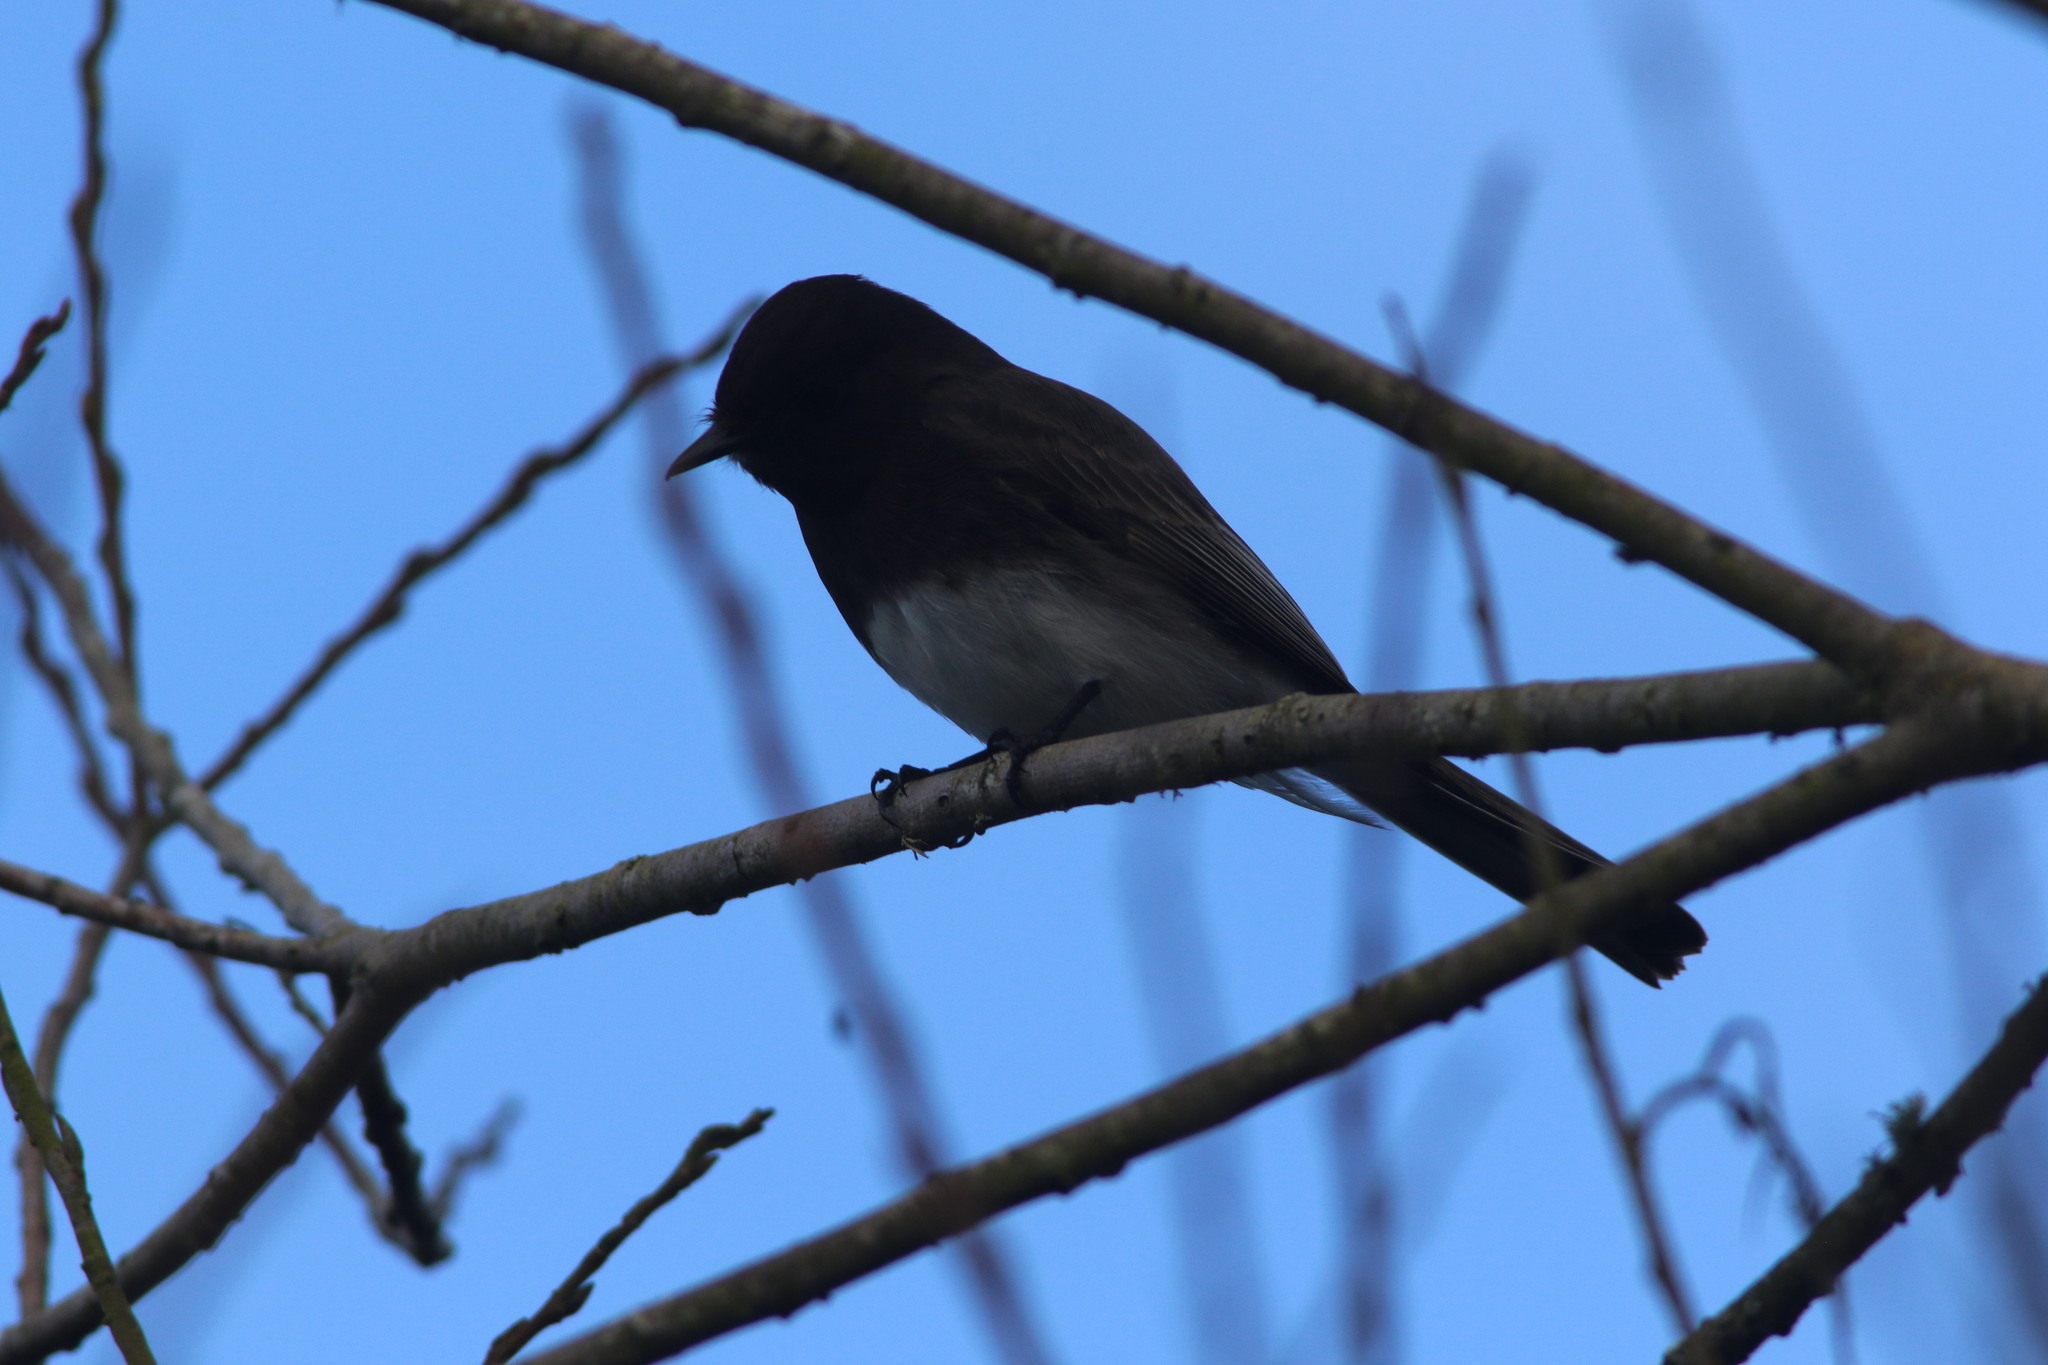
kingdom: Animalia
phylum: Chordata
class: Aves
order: Passeriformes
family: Tyrannidae
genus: Sayornis
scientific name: Sayornis nigricans
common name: Black phoebe
